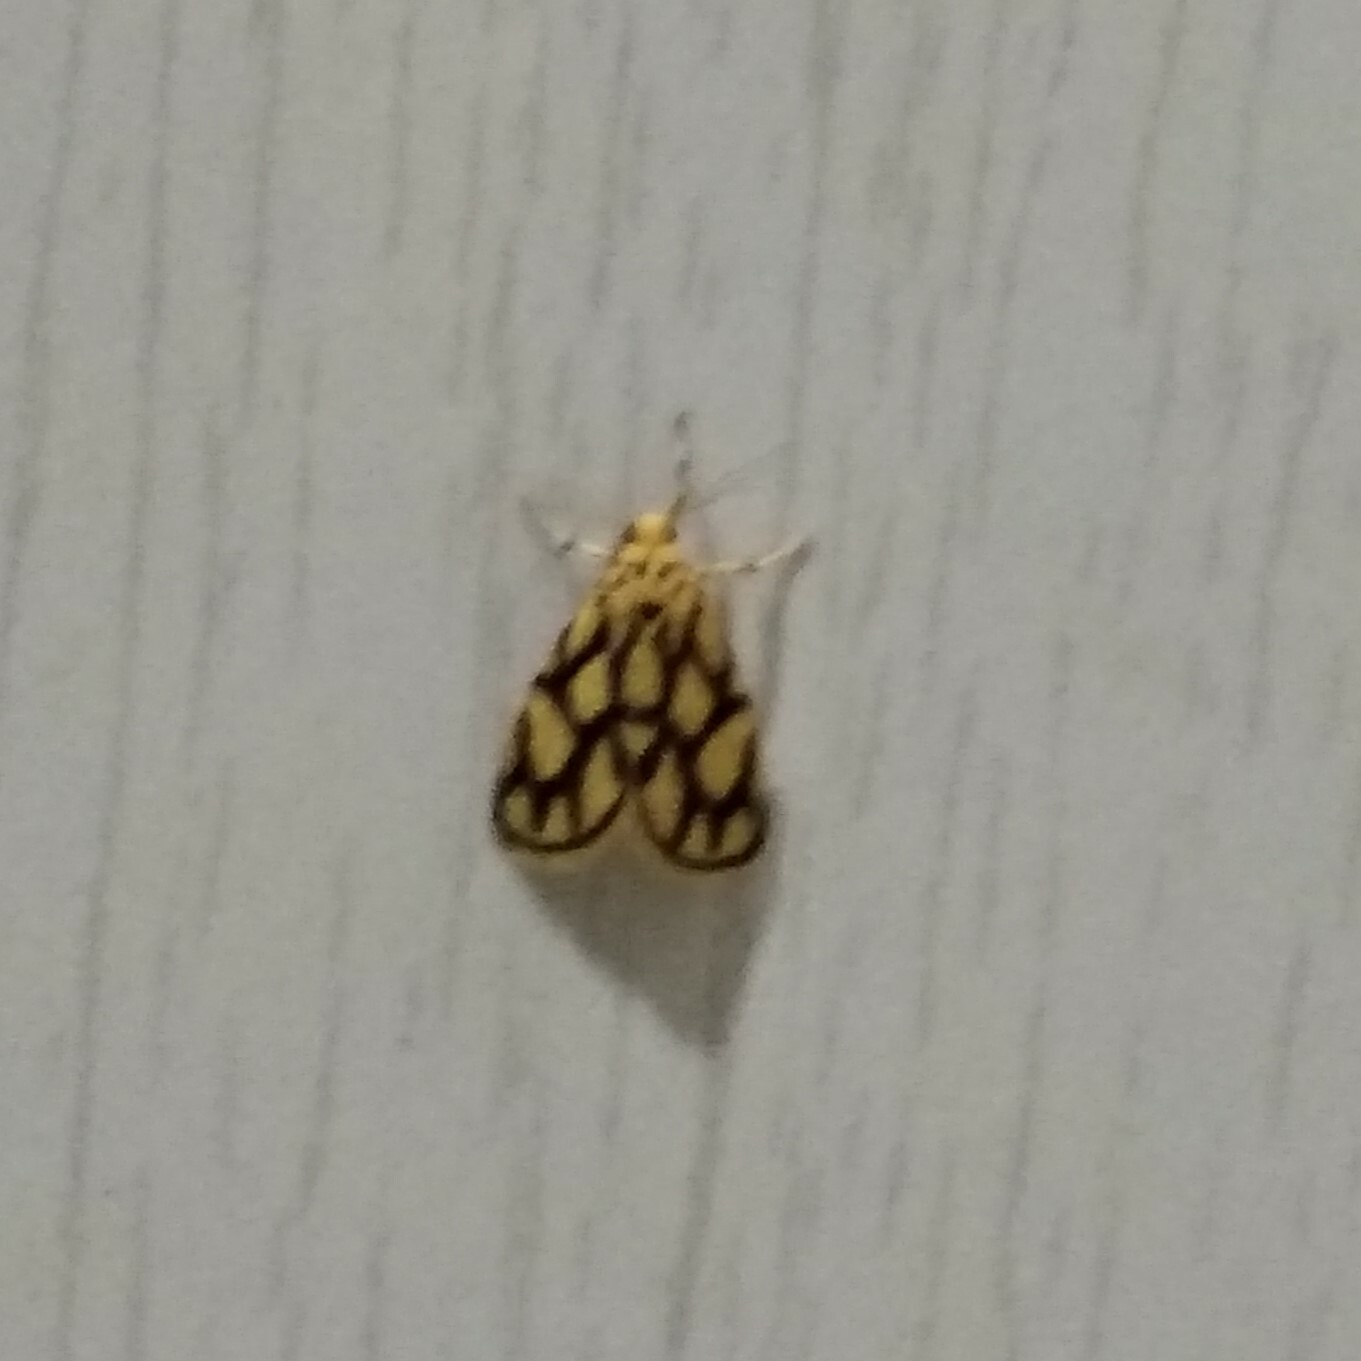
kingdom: Animalia
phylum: Arthropoda
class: Insecta
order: Lepidoptera
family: Erebidae
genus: Miltochrista
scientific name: Miltochrista conjunctana
